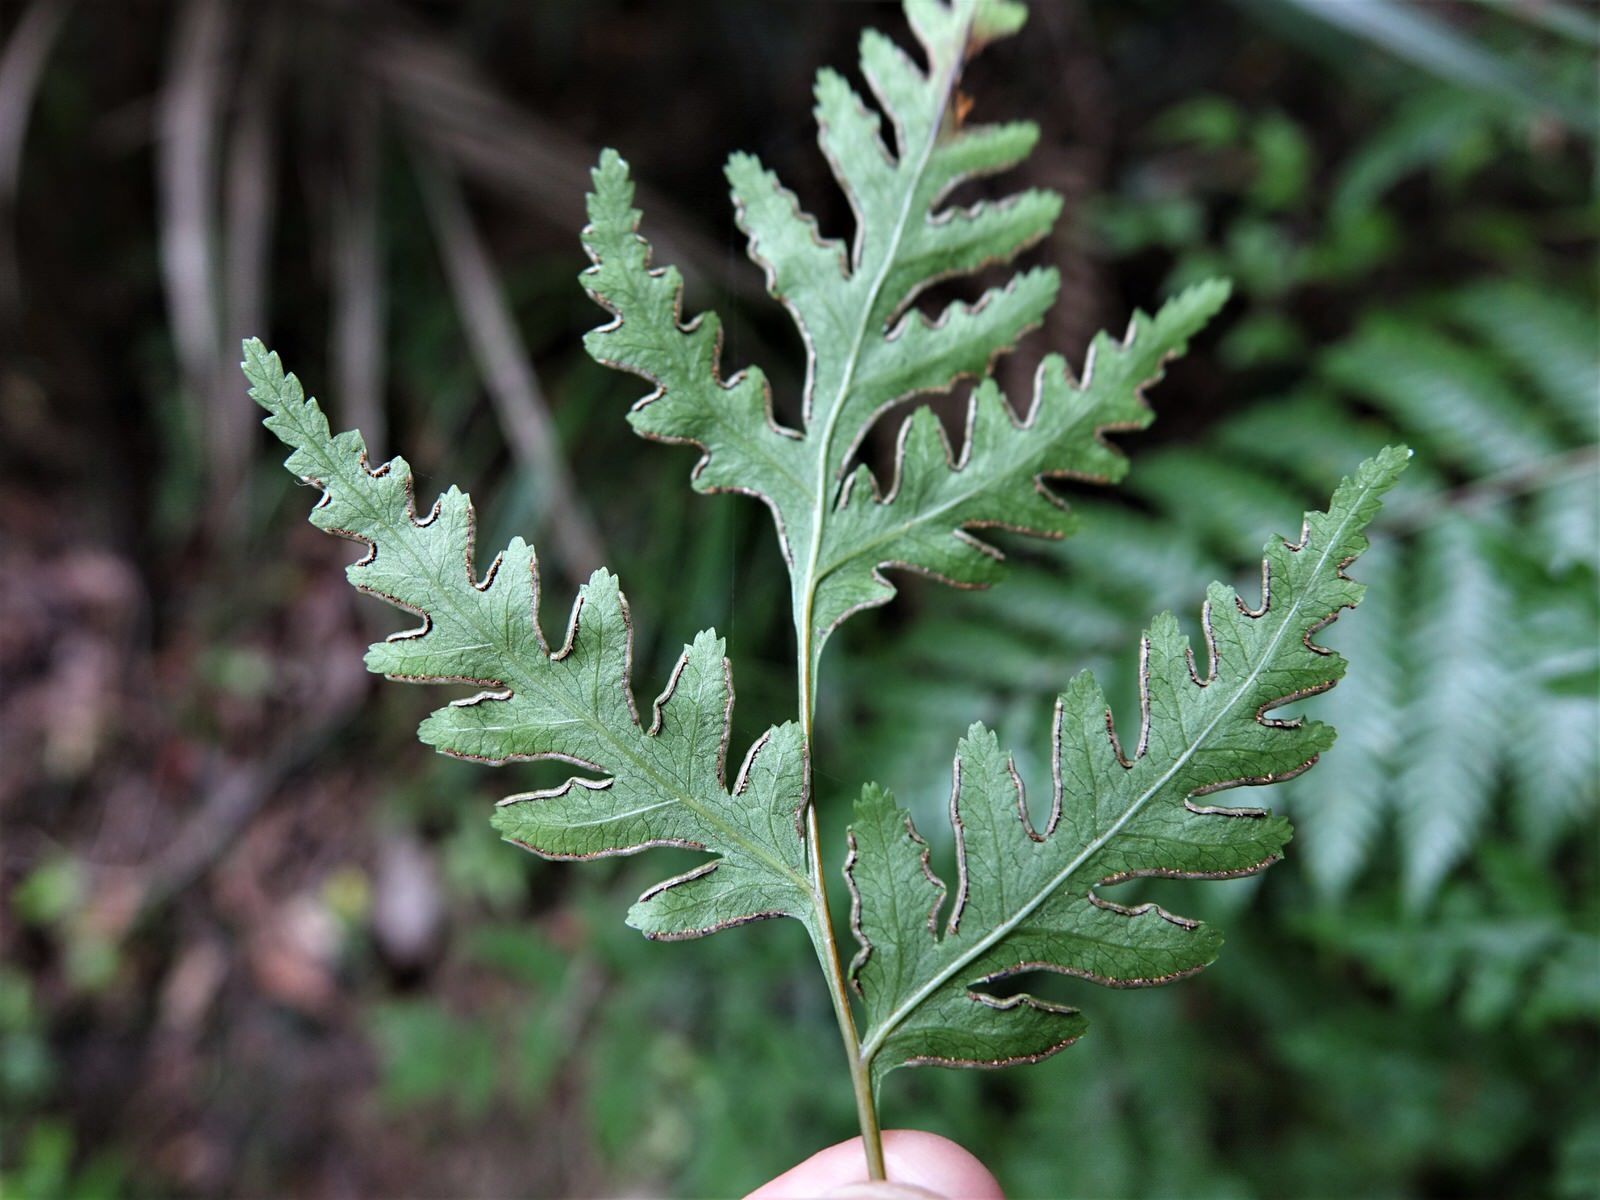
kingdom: Plantae
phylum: Tracheophyta
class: Polypodiopsida
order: Polypodiales
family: Pteridaceae
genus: Pteris
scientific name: Pteris macilenta
